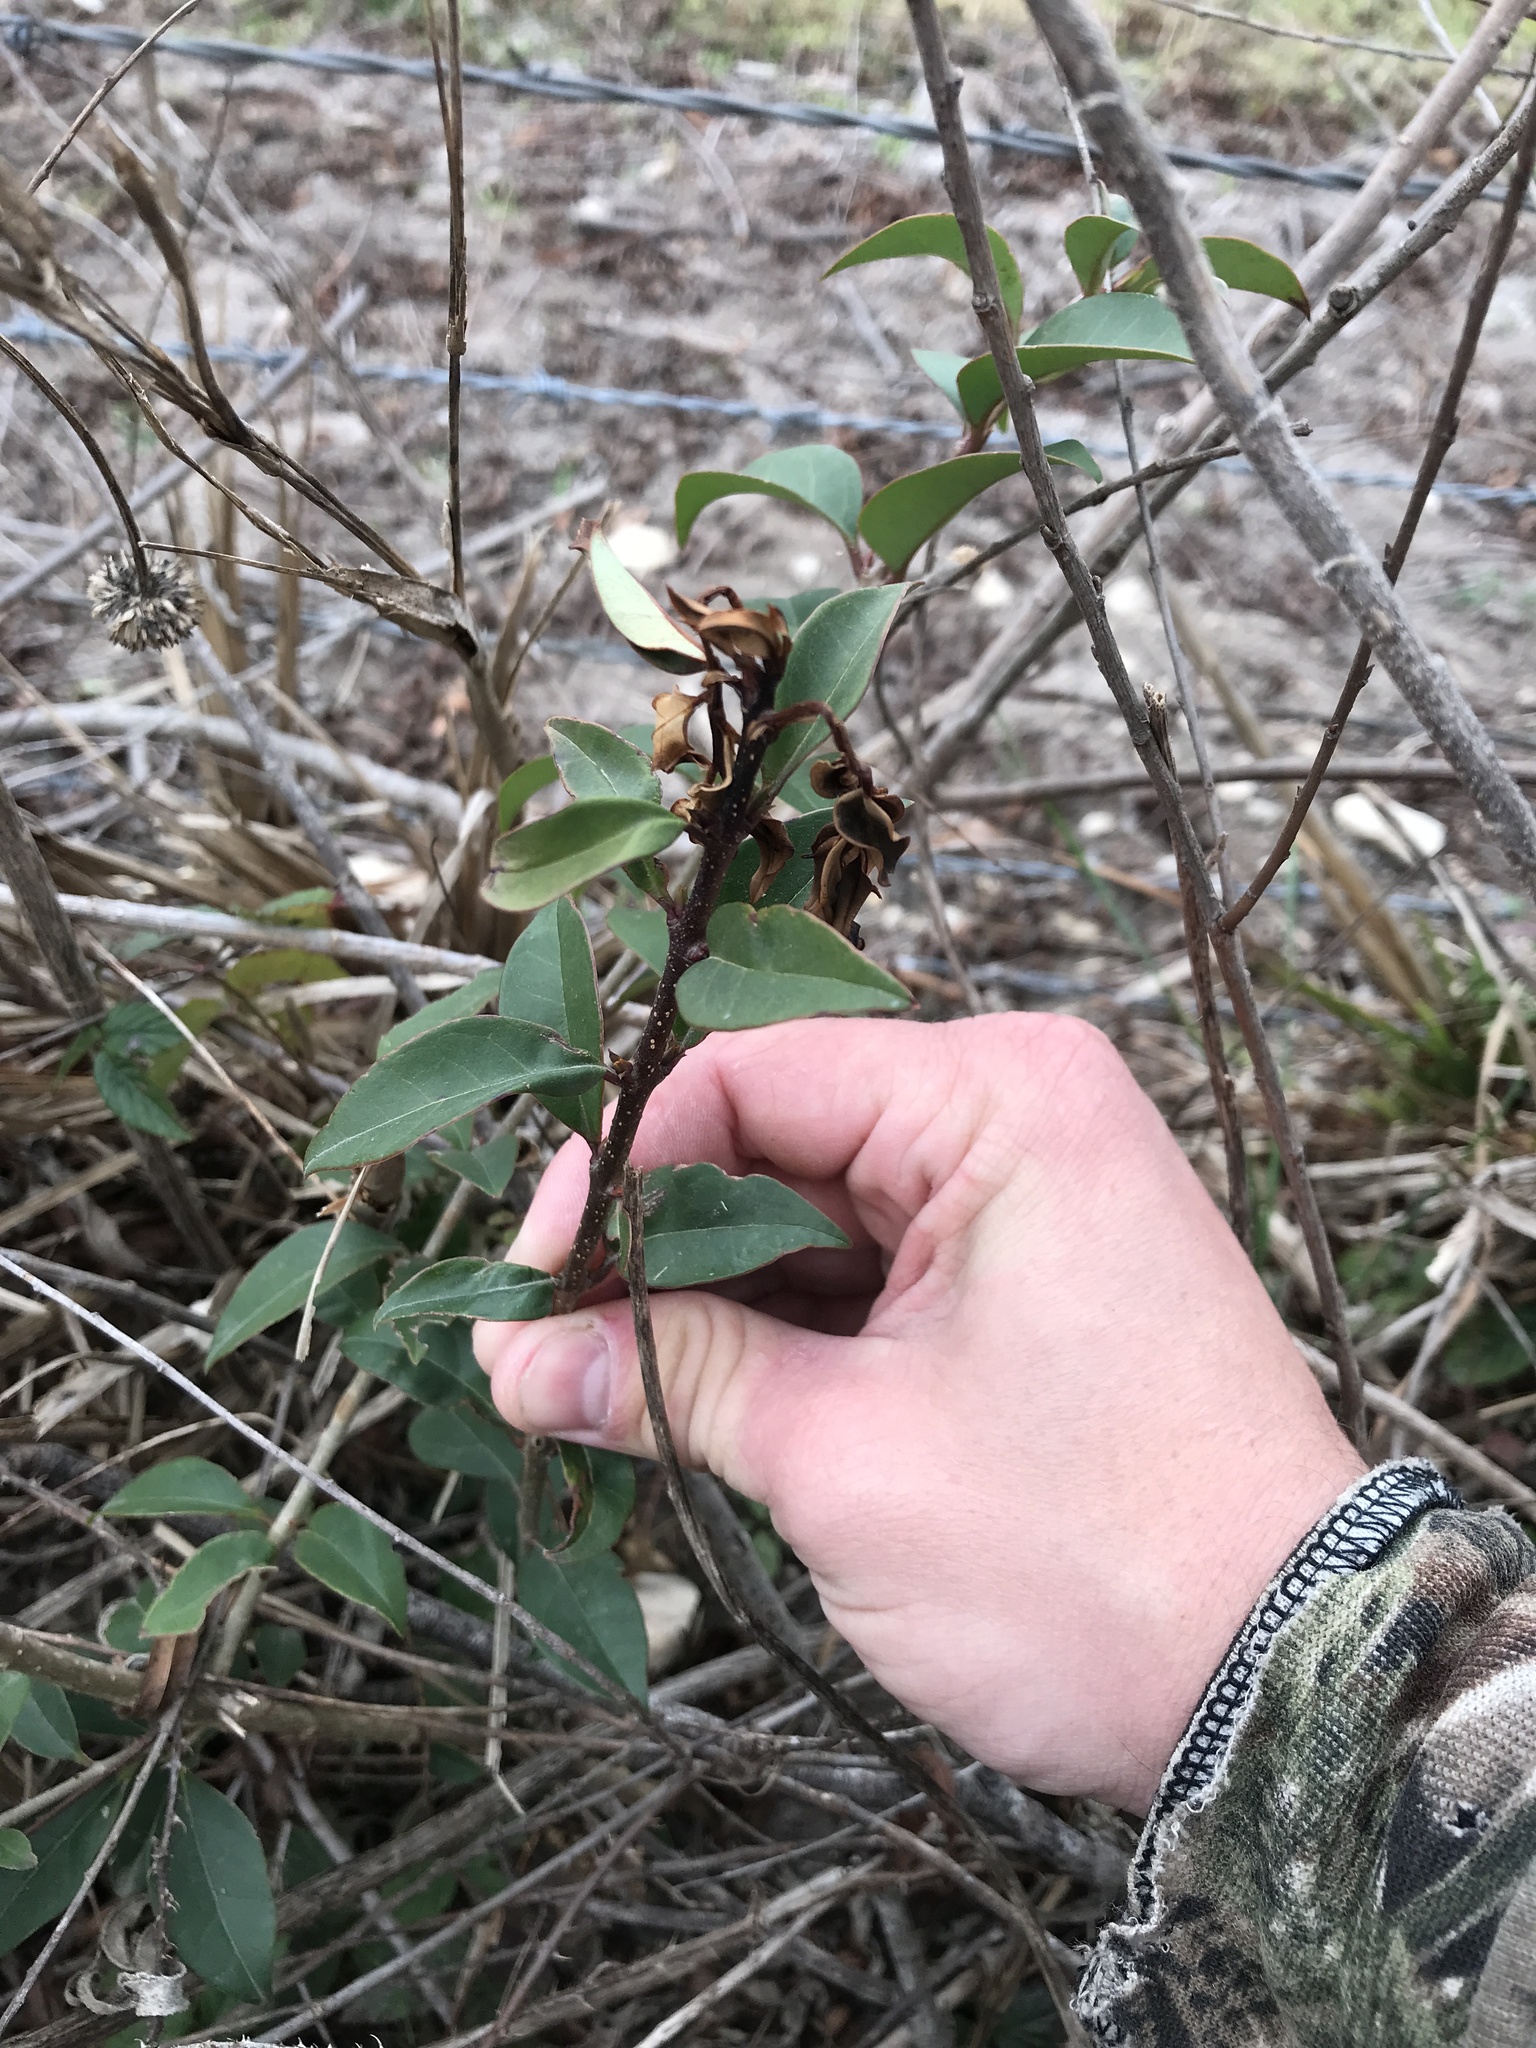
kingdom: Plantae
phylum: Tracheophyta
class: Magnoliopsida
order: Lamiales
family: Oleaceae
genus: Ligustrum
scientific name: Ligustrum lucidum
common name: Glossy privet
